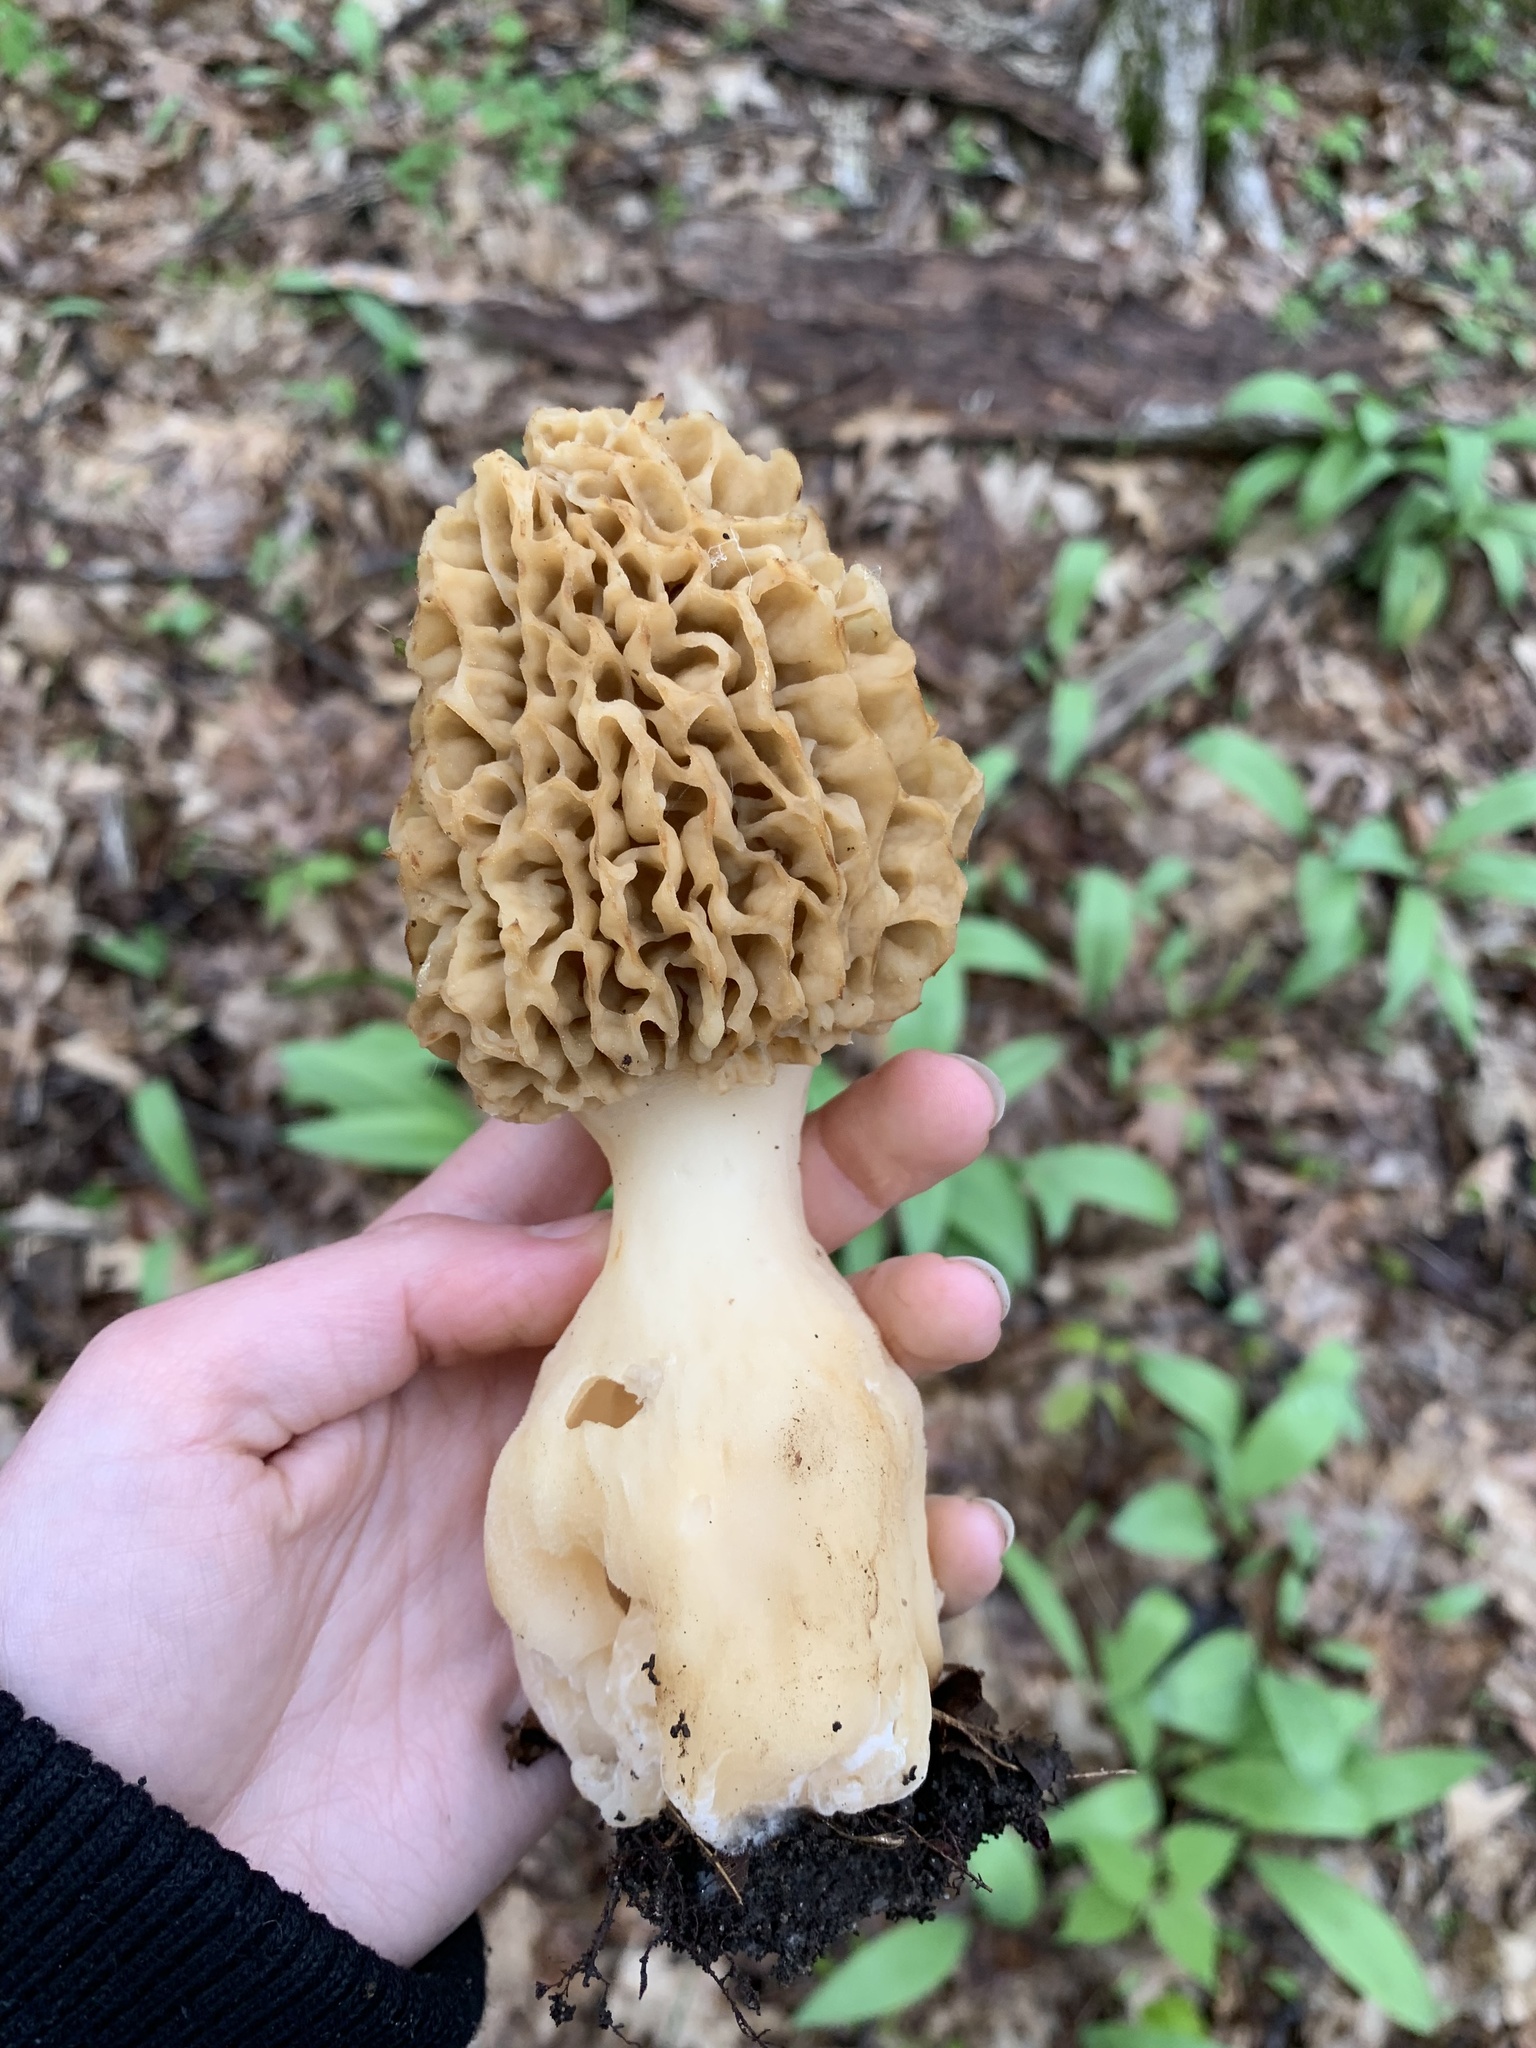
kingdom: Fungi
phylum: Ascomycota
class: Pezizomycetes
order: Pezizales
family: Morchellaceae
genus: Morchella
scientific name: Morchella americana
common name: White morel
